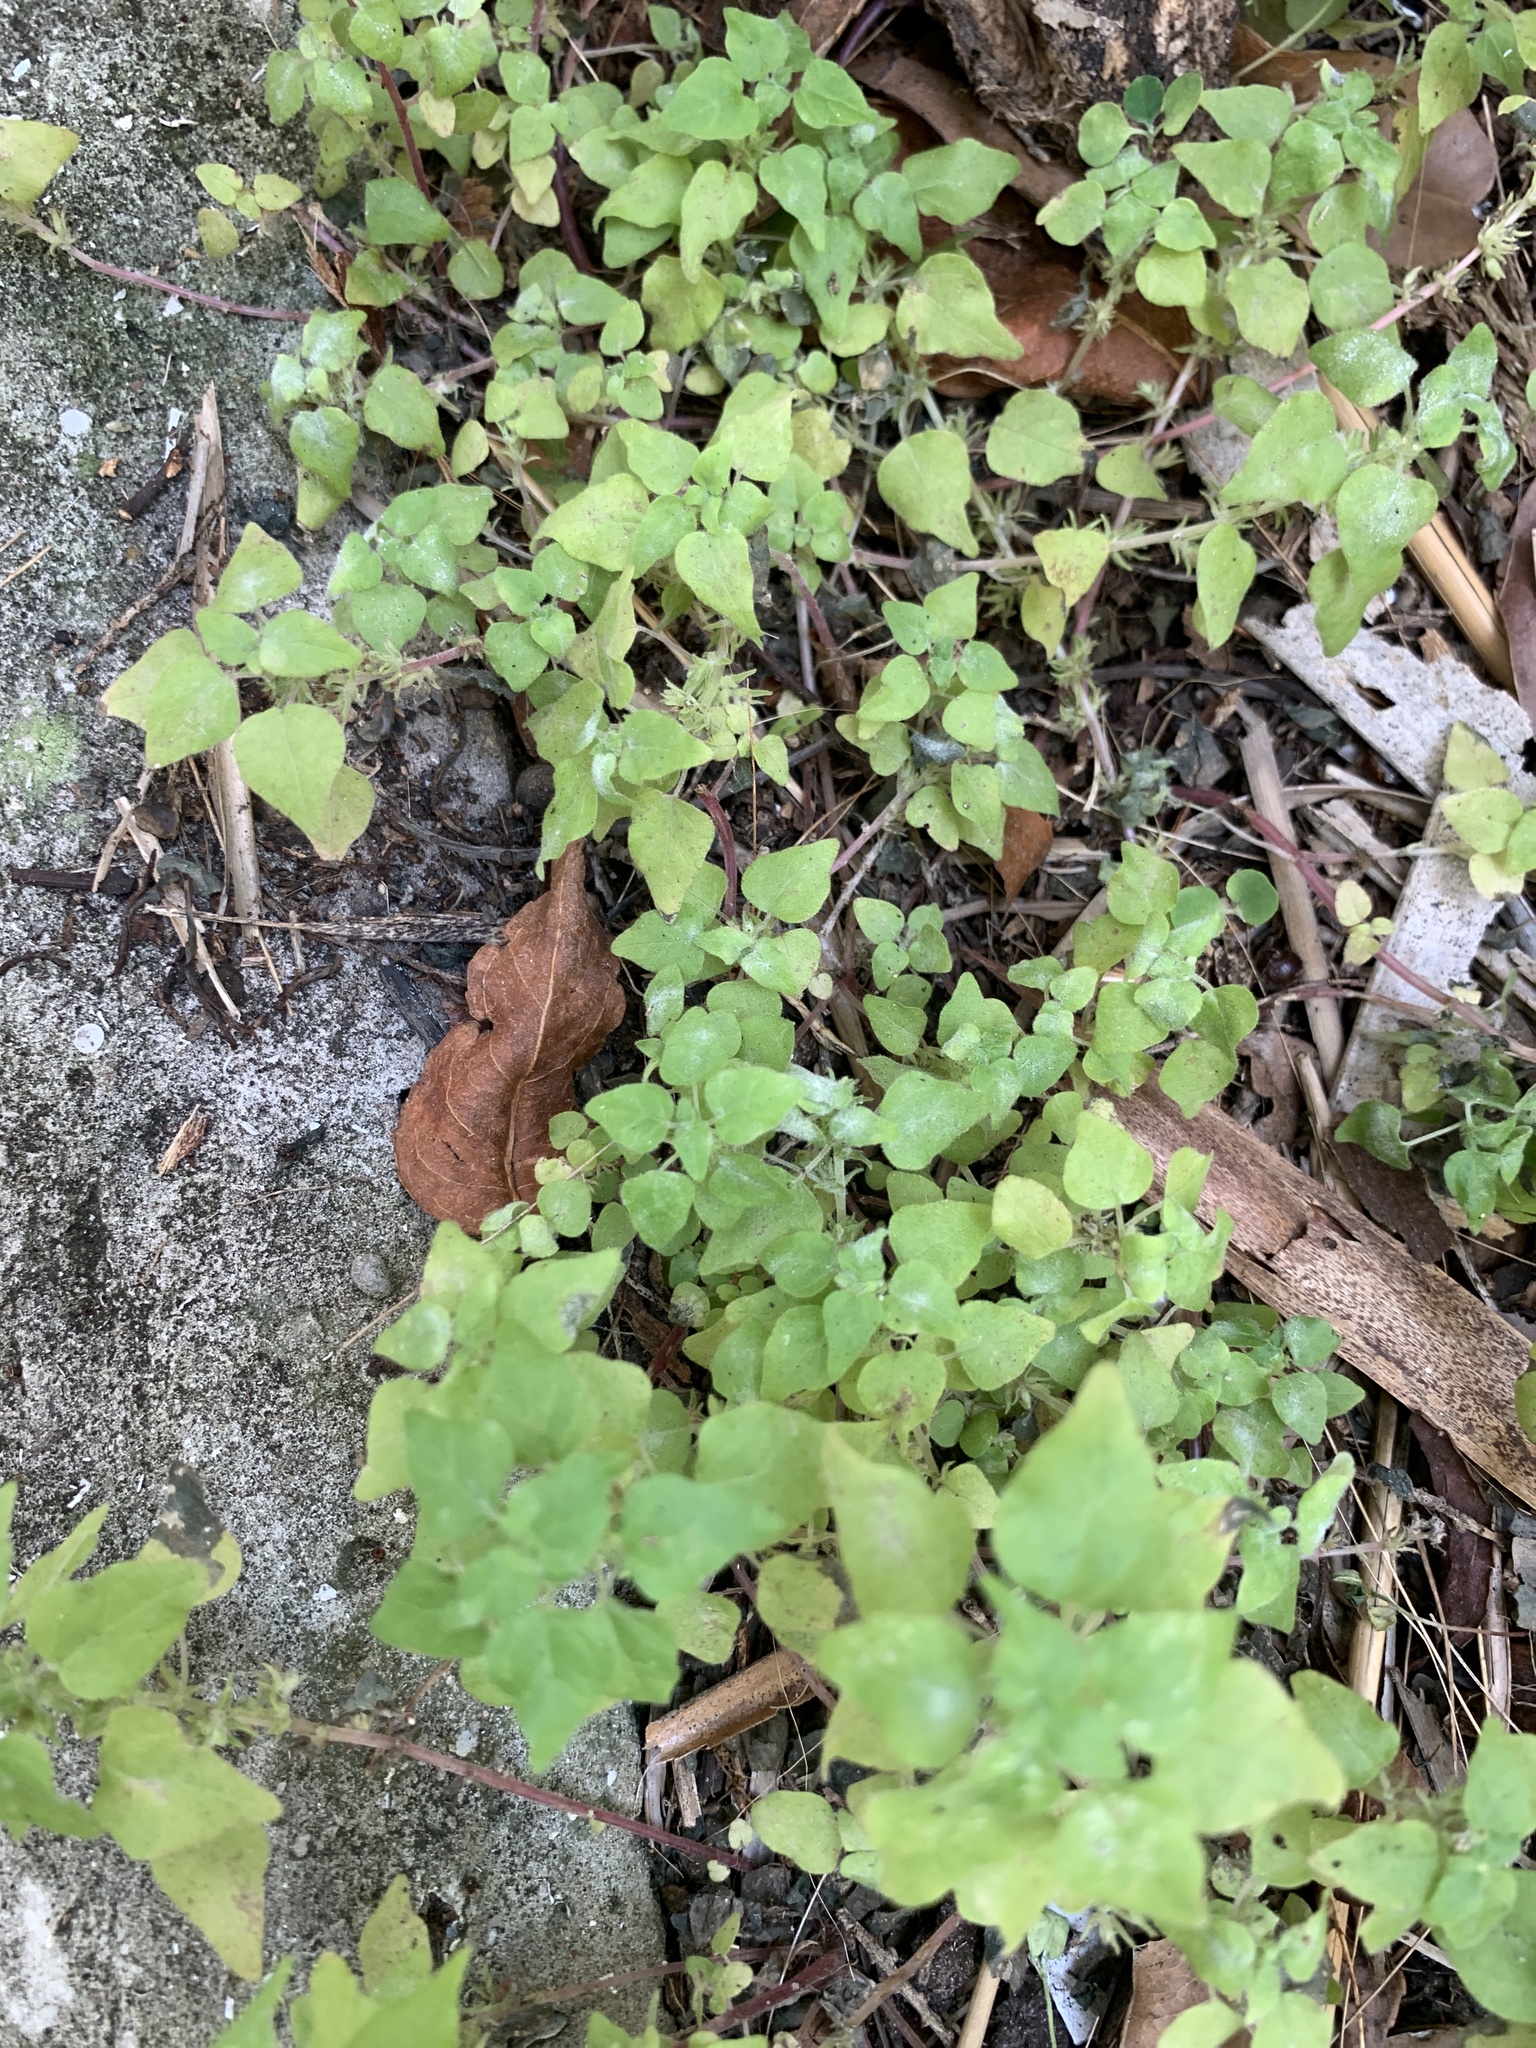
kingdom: Plantae
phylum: Tracheophyta
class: Magnoliopsida
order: Rosales
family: Urticaceae
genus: Parietaria
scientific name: Parietaria floridana
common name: Florida pellitory
